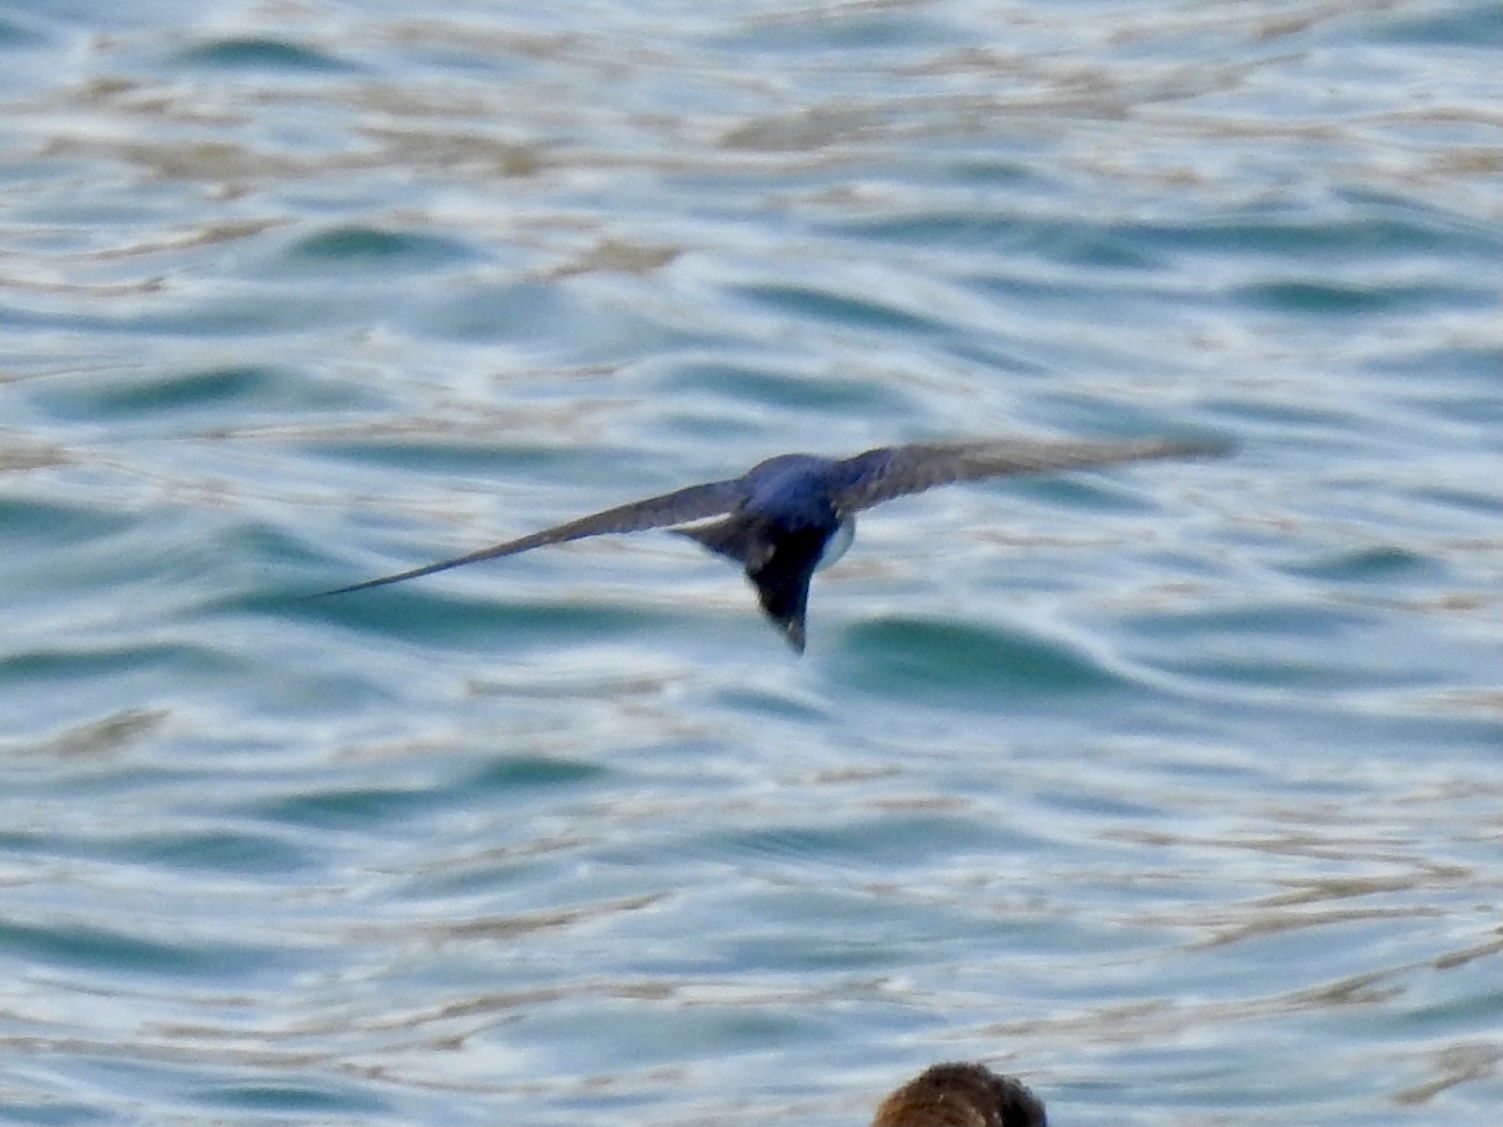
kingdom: Animalia
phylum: Chordata
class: Aves
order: Passeriformes
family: Hirundinidae
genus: Tachycineta
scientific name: Tachycineta bicolor
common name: Tree swallow
